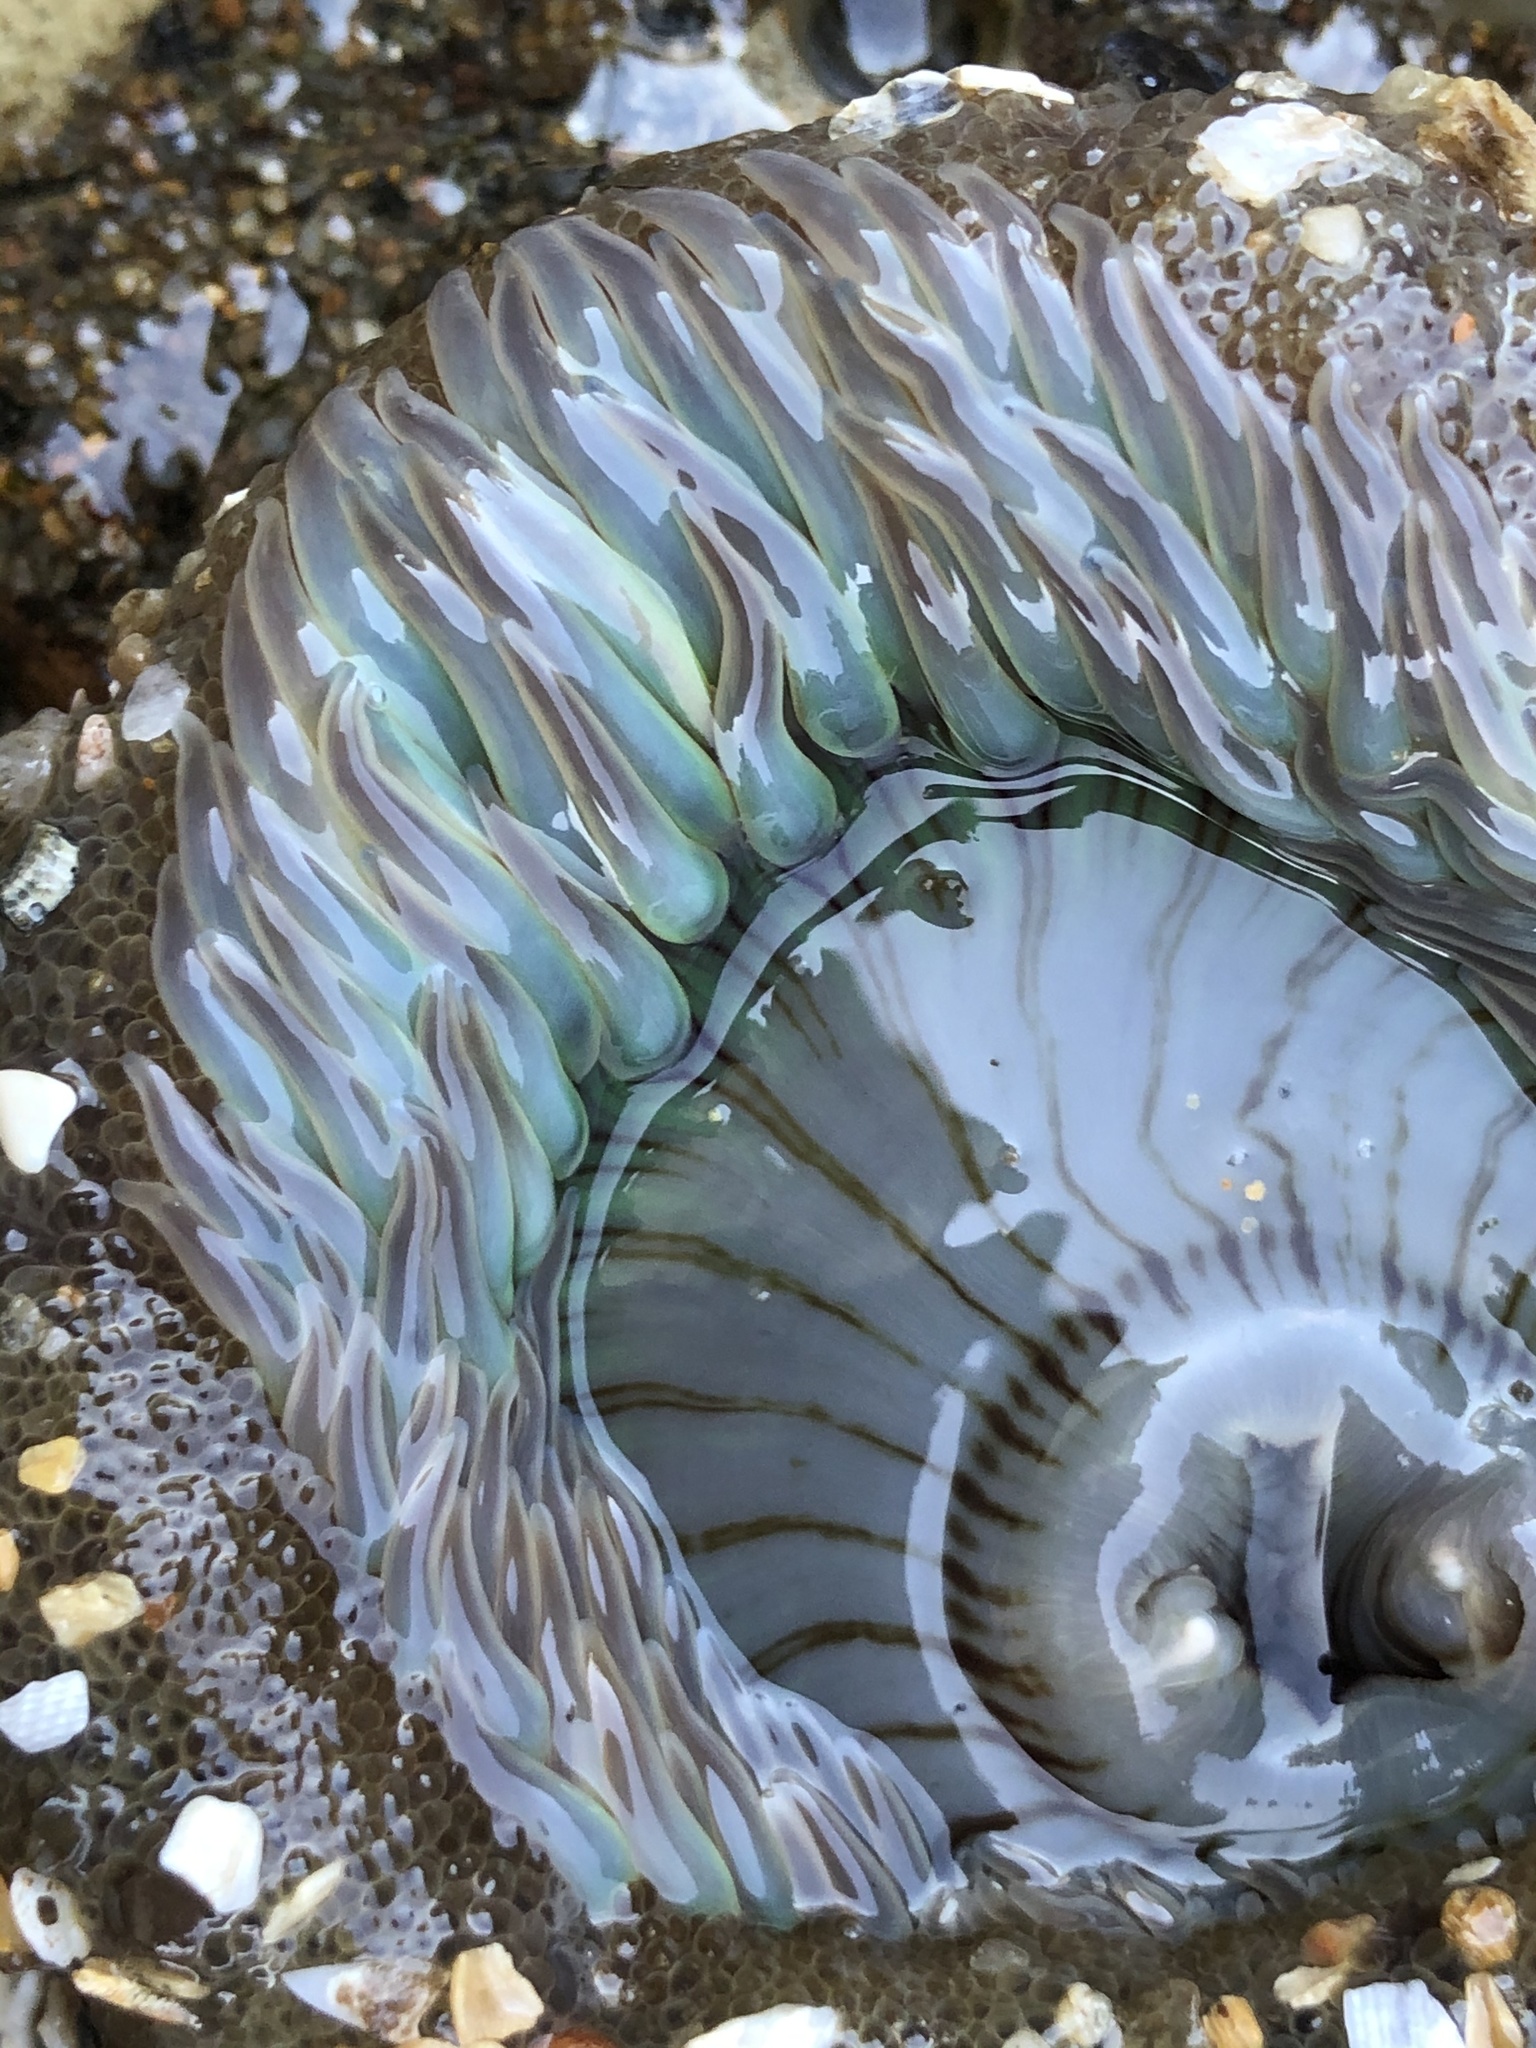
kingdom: Animalia
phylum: Cnidaria
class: Anthozoa
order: Actiniaria
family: Actiniidae
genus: Anthopleura
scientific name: Anthopleura sola
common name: Sun anemone
